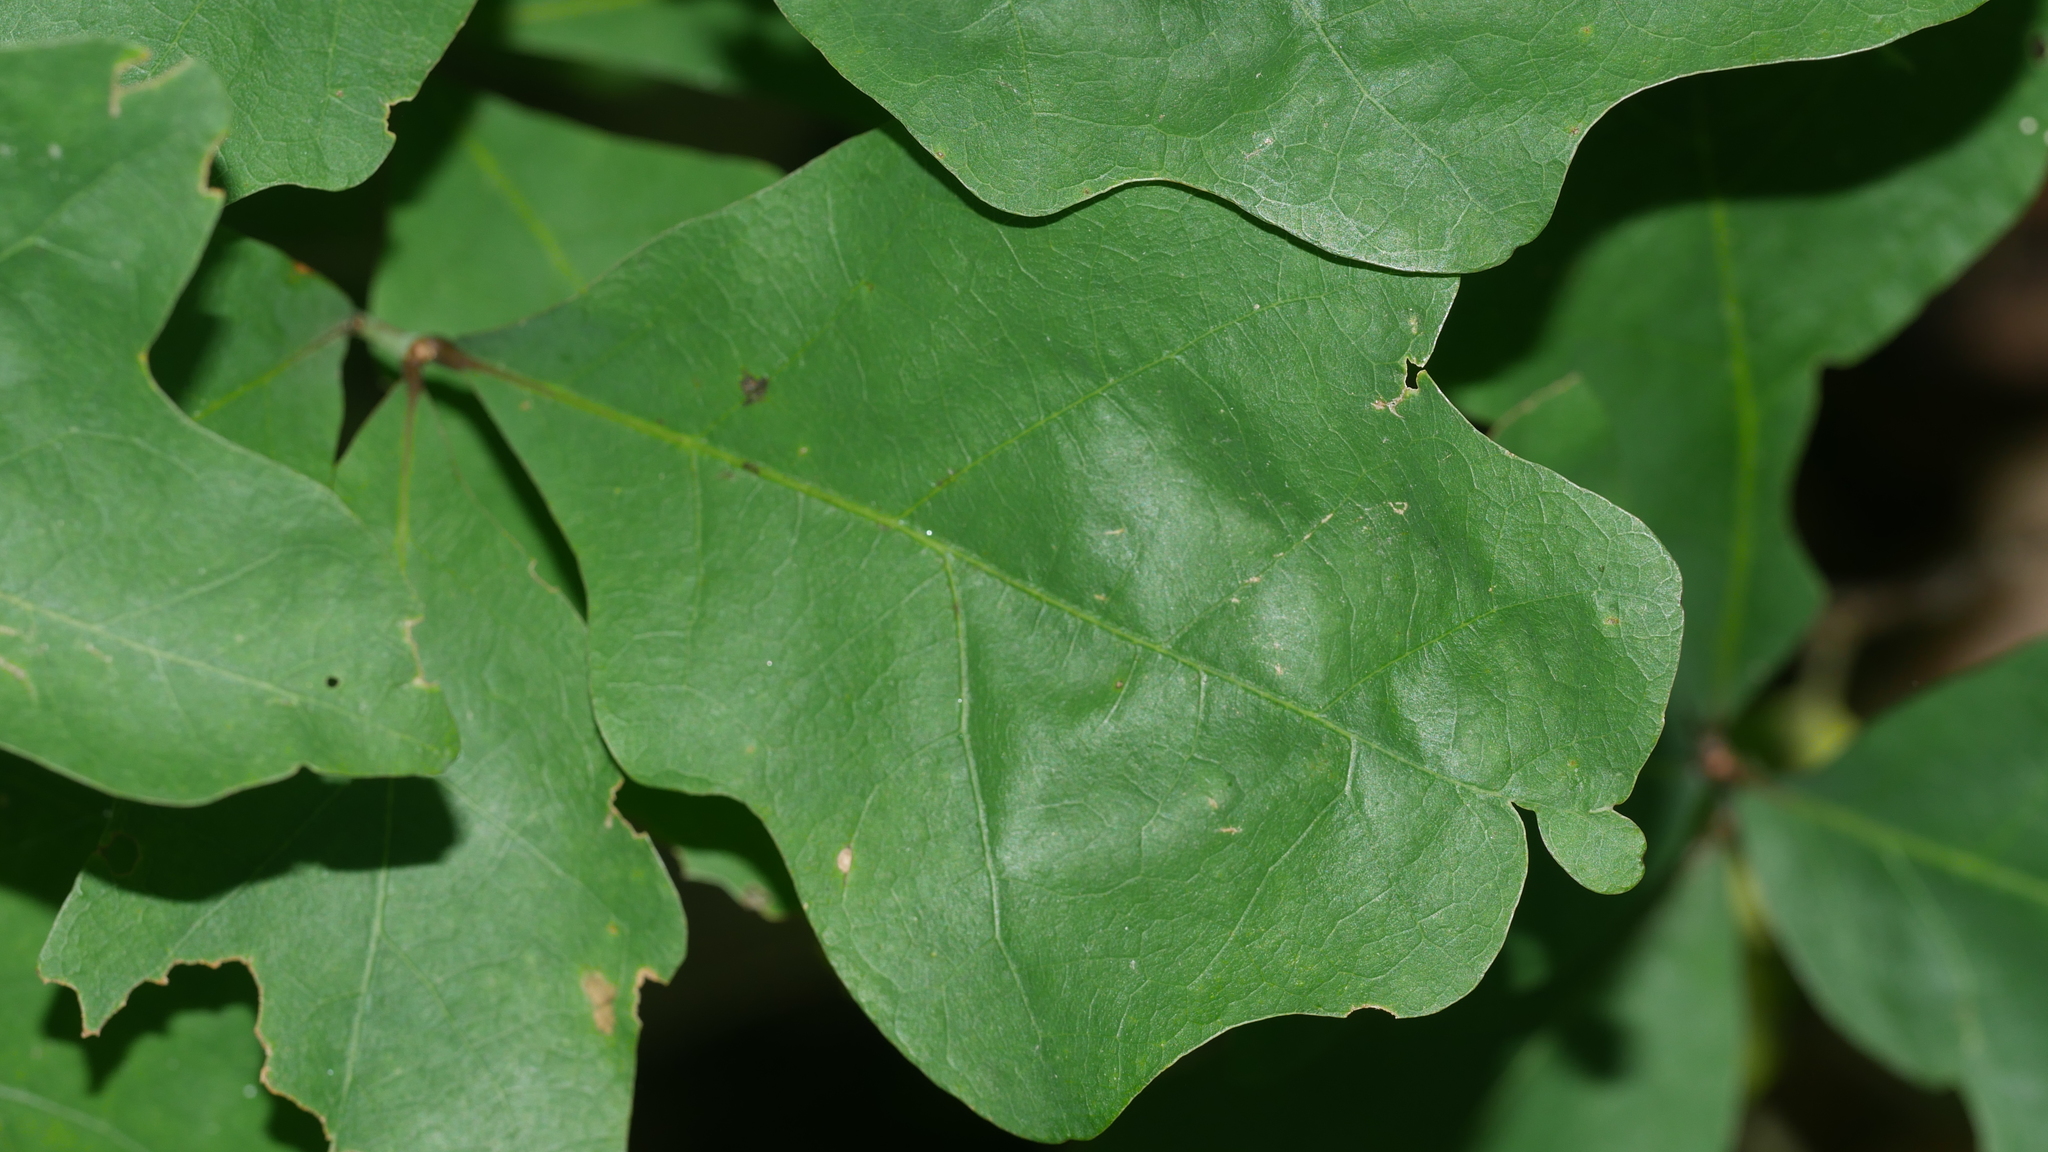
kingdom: Plantae
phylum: Tracheophyta
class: Magnoliopsida
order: Fagales
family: Fagaceae
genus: Quercus
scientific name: Quercus alba
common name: White oak
